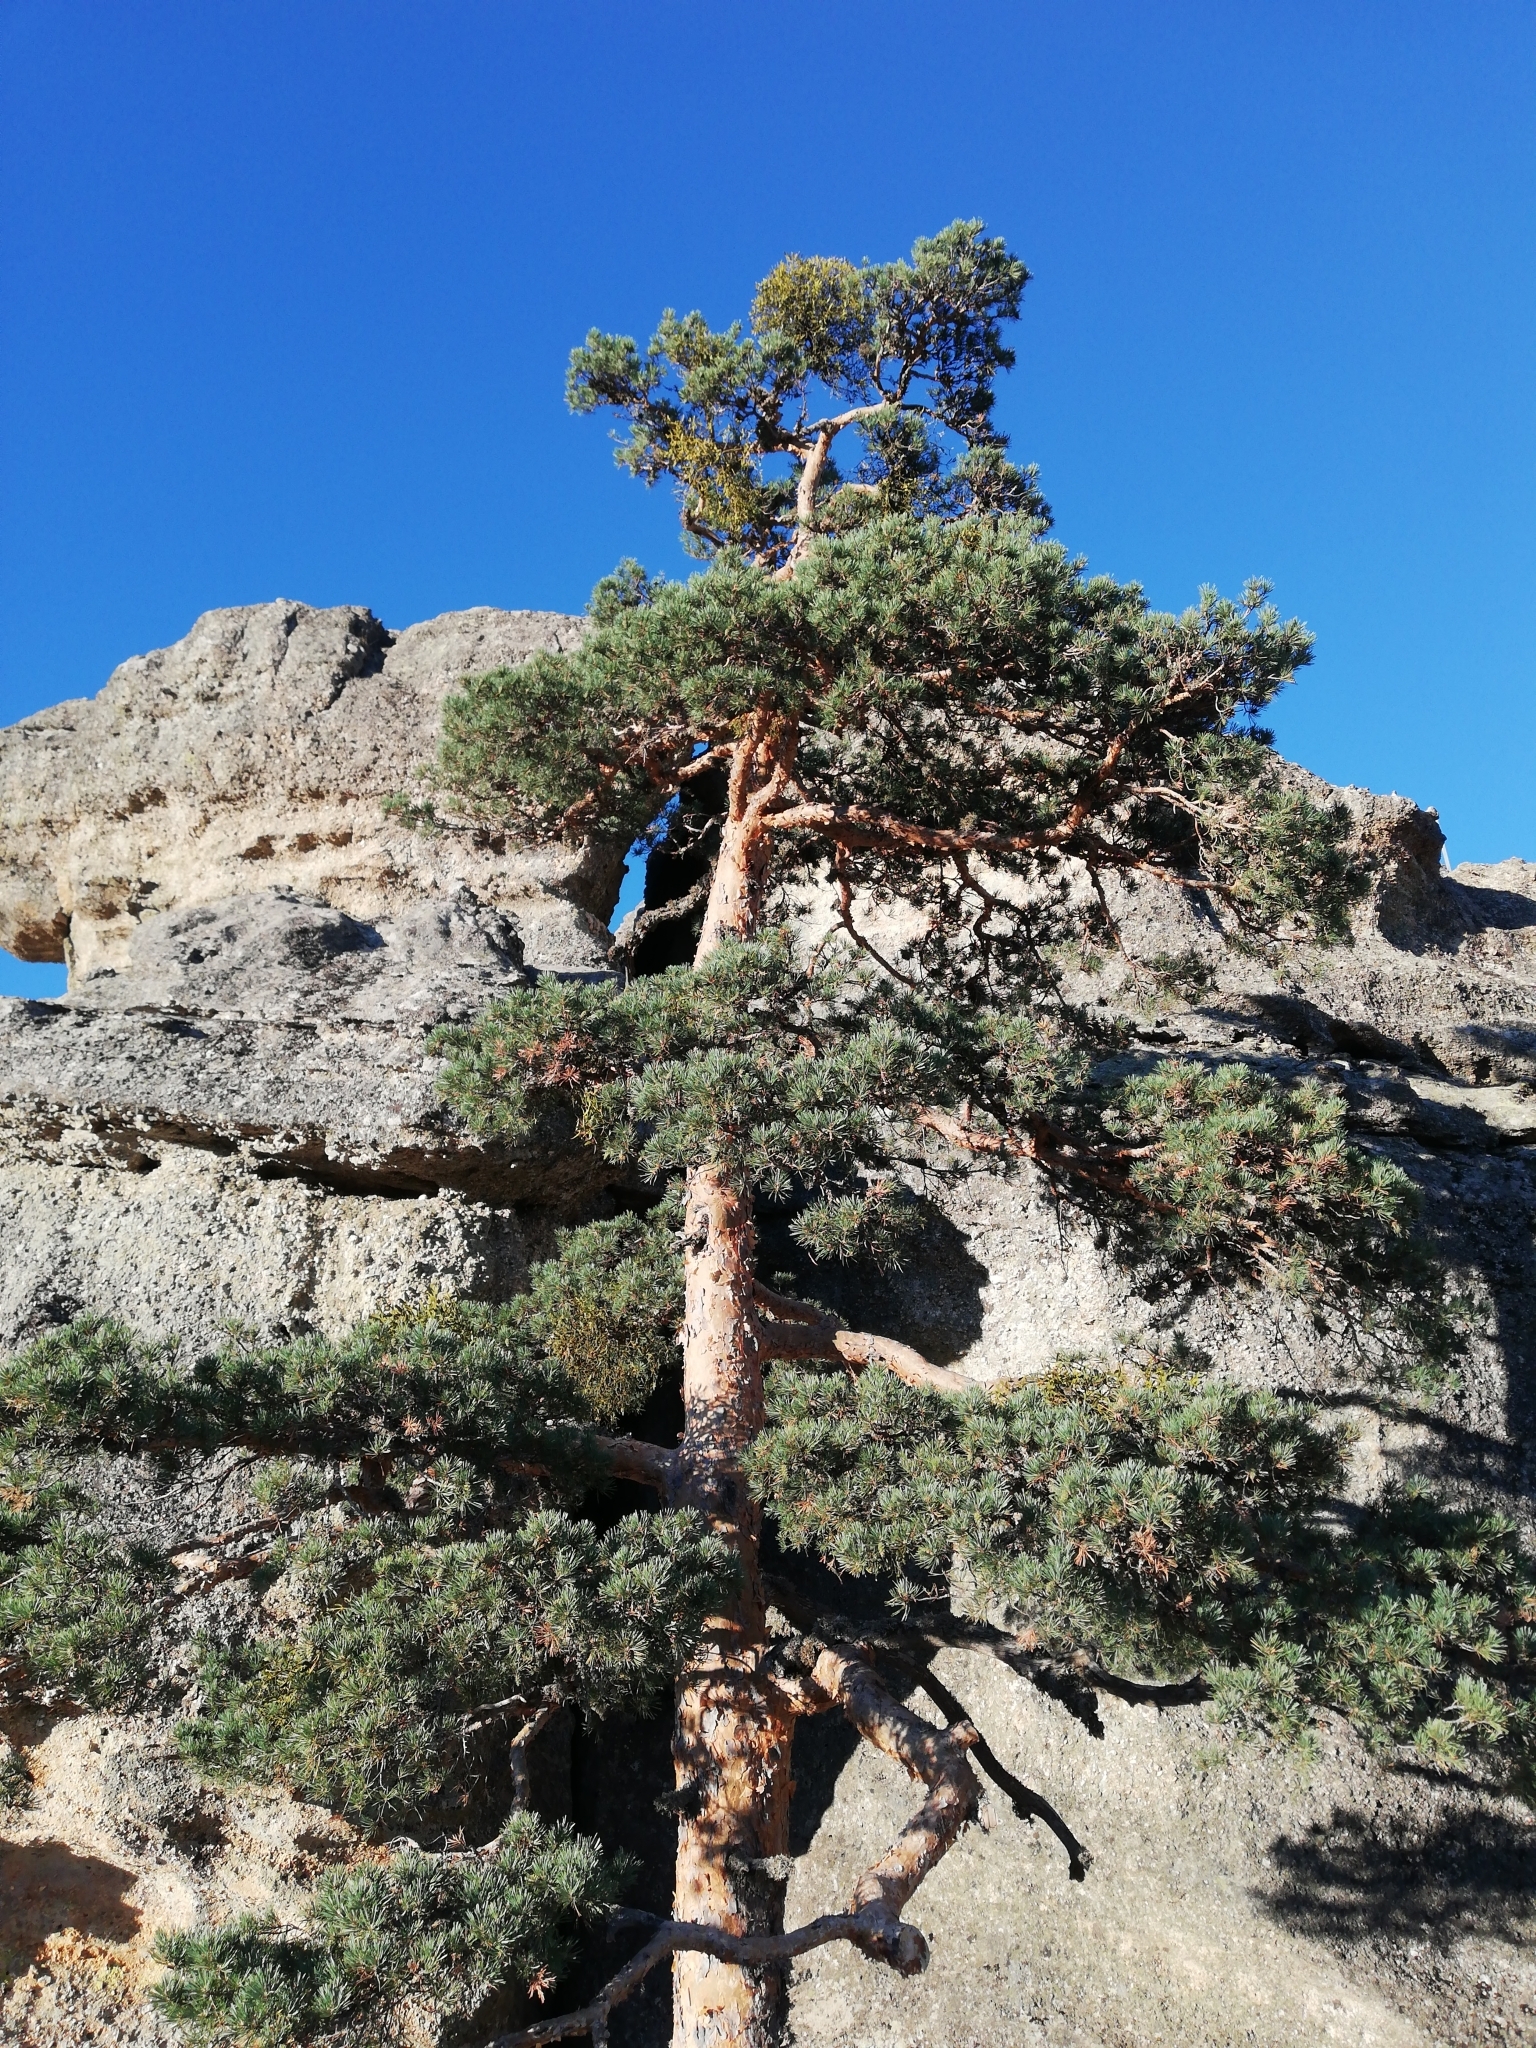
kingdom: Plantae
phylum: Tracheophyta
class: Pinopsida
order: Pinales
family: Pinaceae
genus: Pinus
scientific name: Pinus sylvestris
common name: Scots pine
